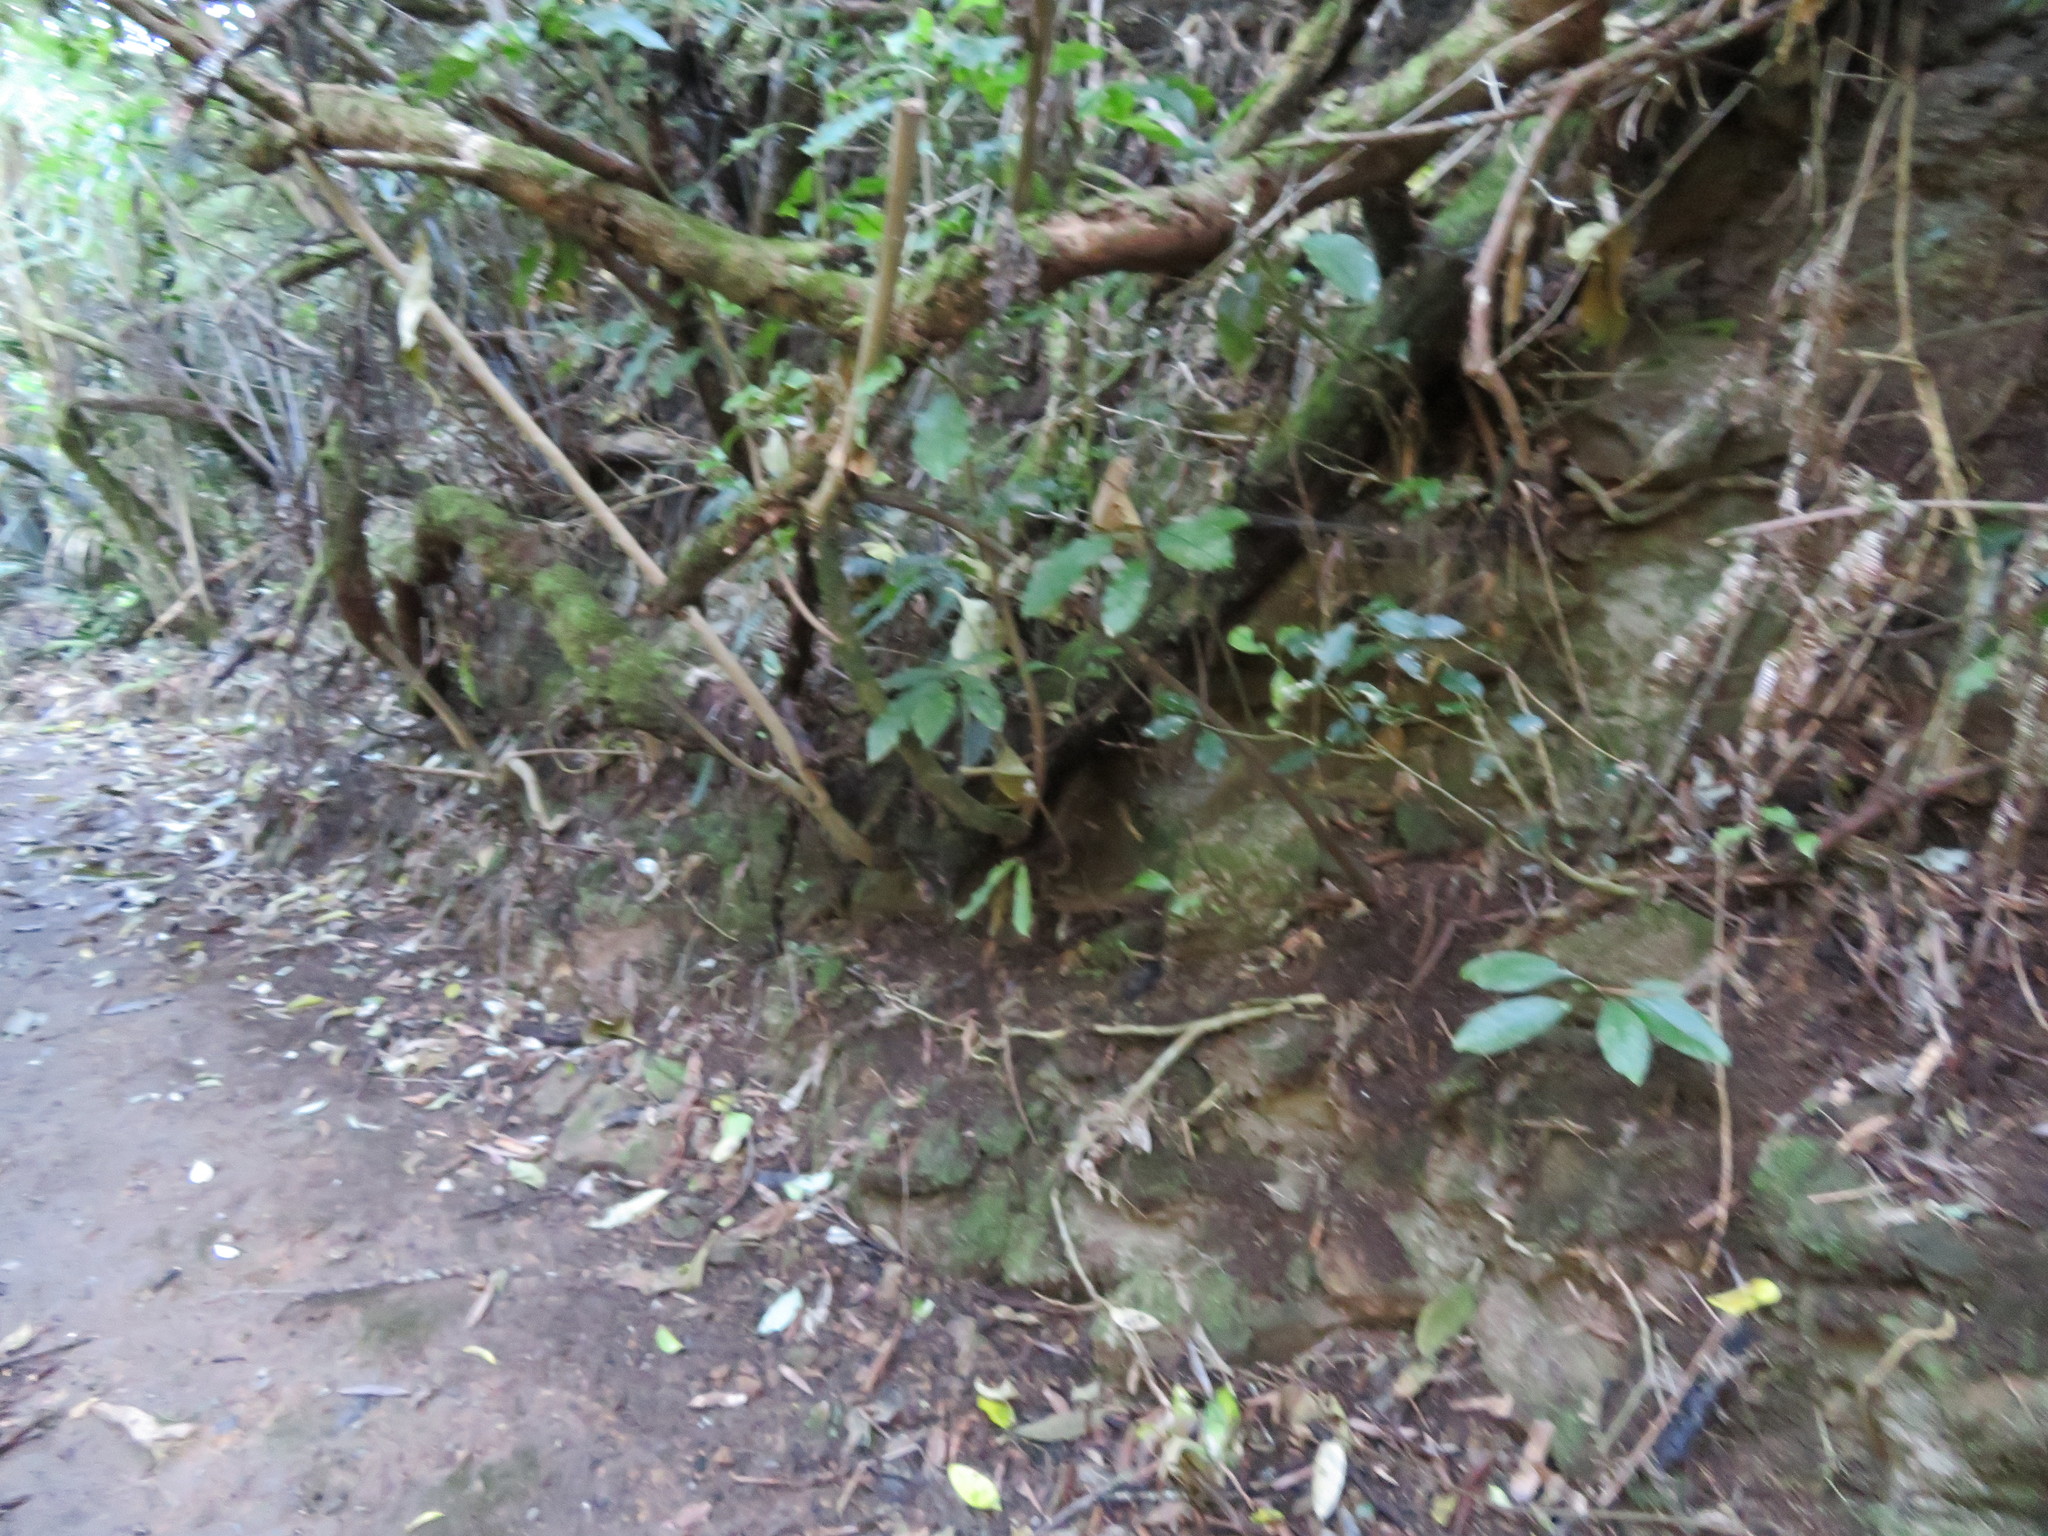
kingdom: Plantae
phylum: Tracheophyta
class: Magnoliopsida
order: Malpighiales
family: Violaceae
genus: Melicytus
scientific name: Melicytus ramiflorus
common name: Mahoe
